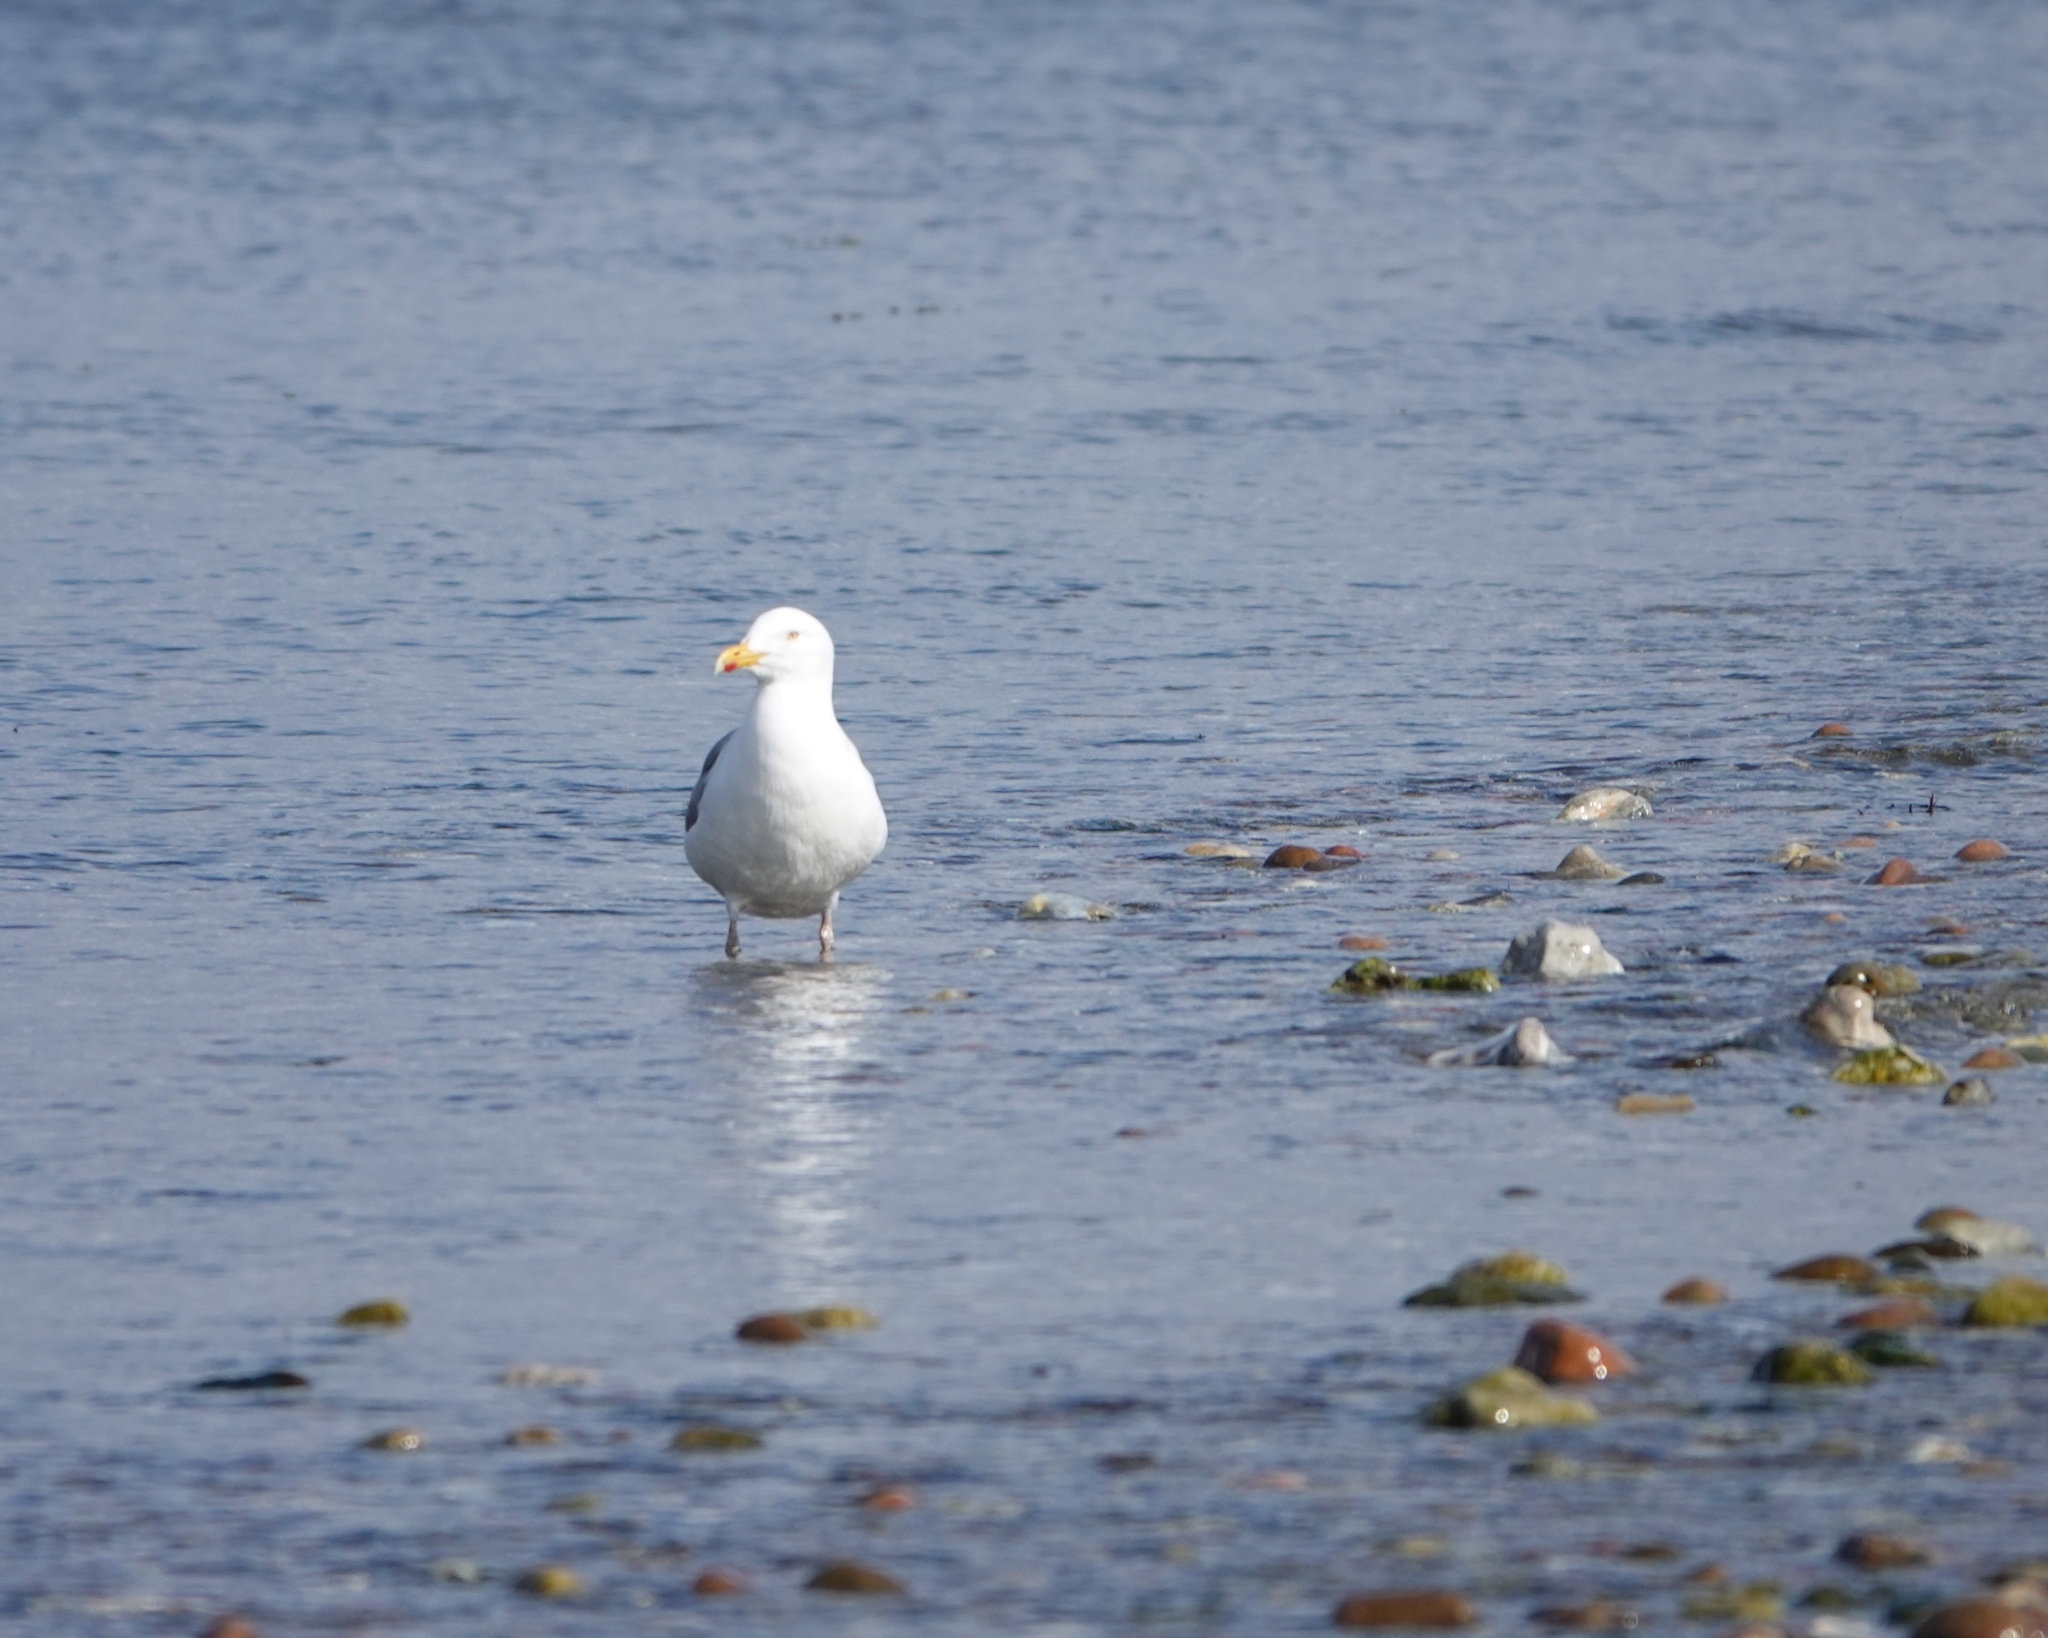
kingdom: Animalia
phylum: Chordata
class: Aves
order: Charadriiformes
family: Laridae
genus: Larus
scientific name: Larus argentatus
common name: Herring gull
